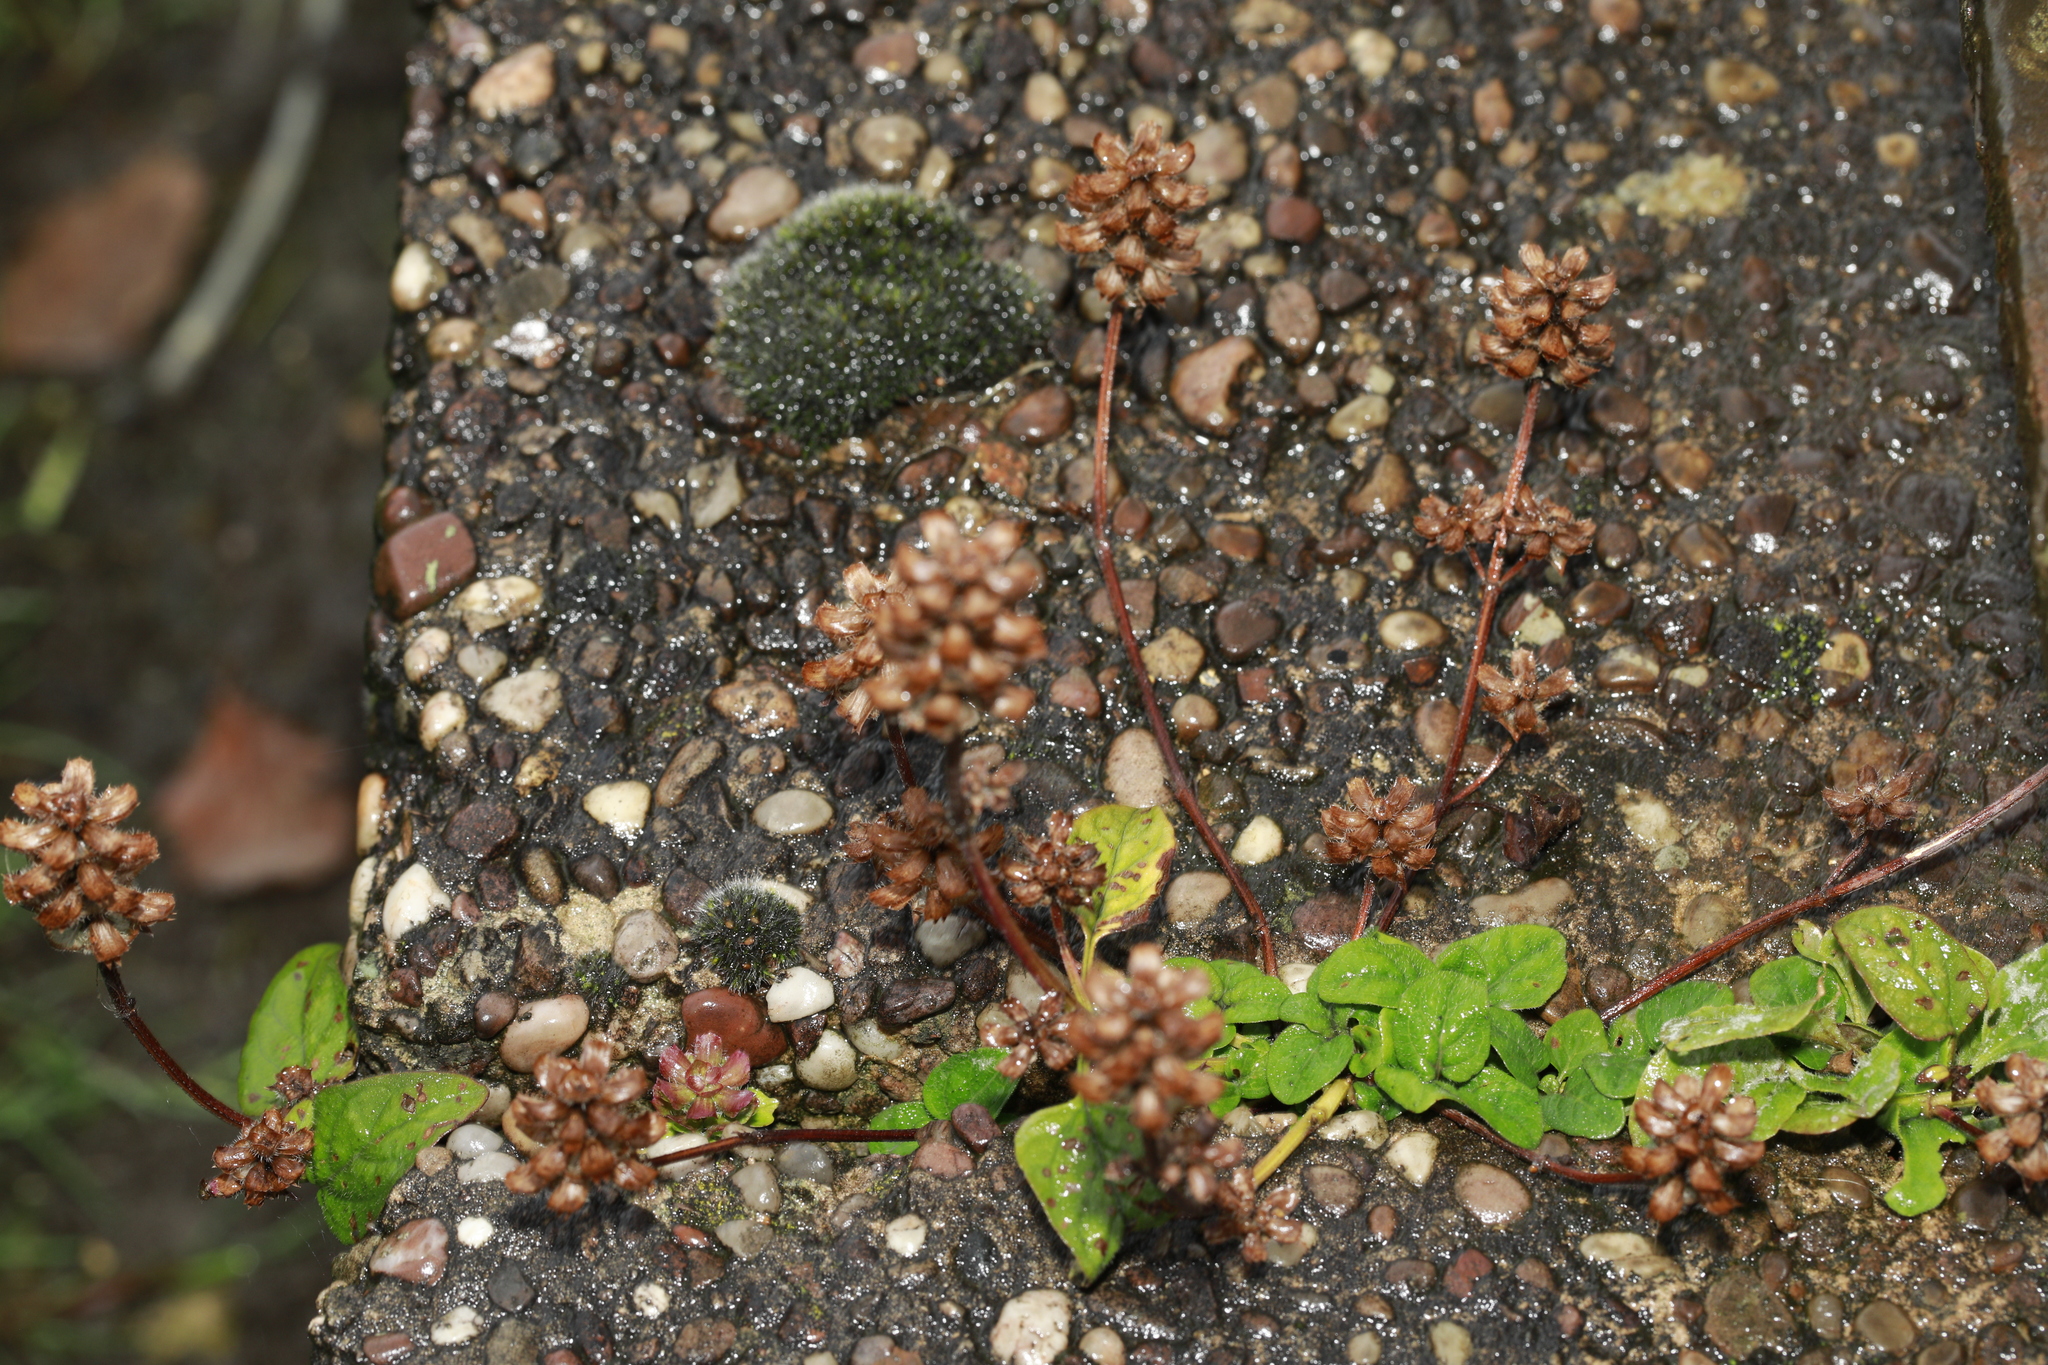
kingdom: Plantae
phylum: Tracheophyta
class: Magnoliopsida
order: Lamiales
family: Lamiaceae
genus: Prunella
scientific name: Prunella vulgaris
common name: Heal-all
